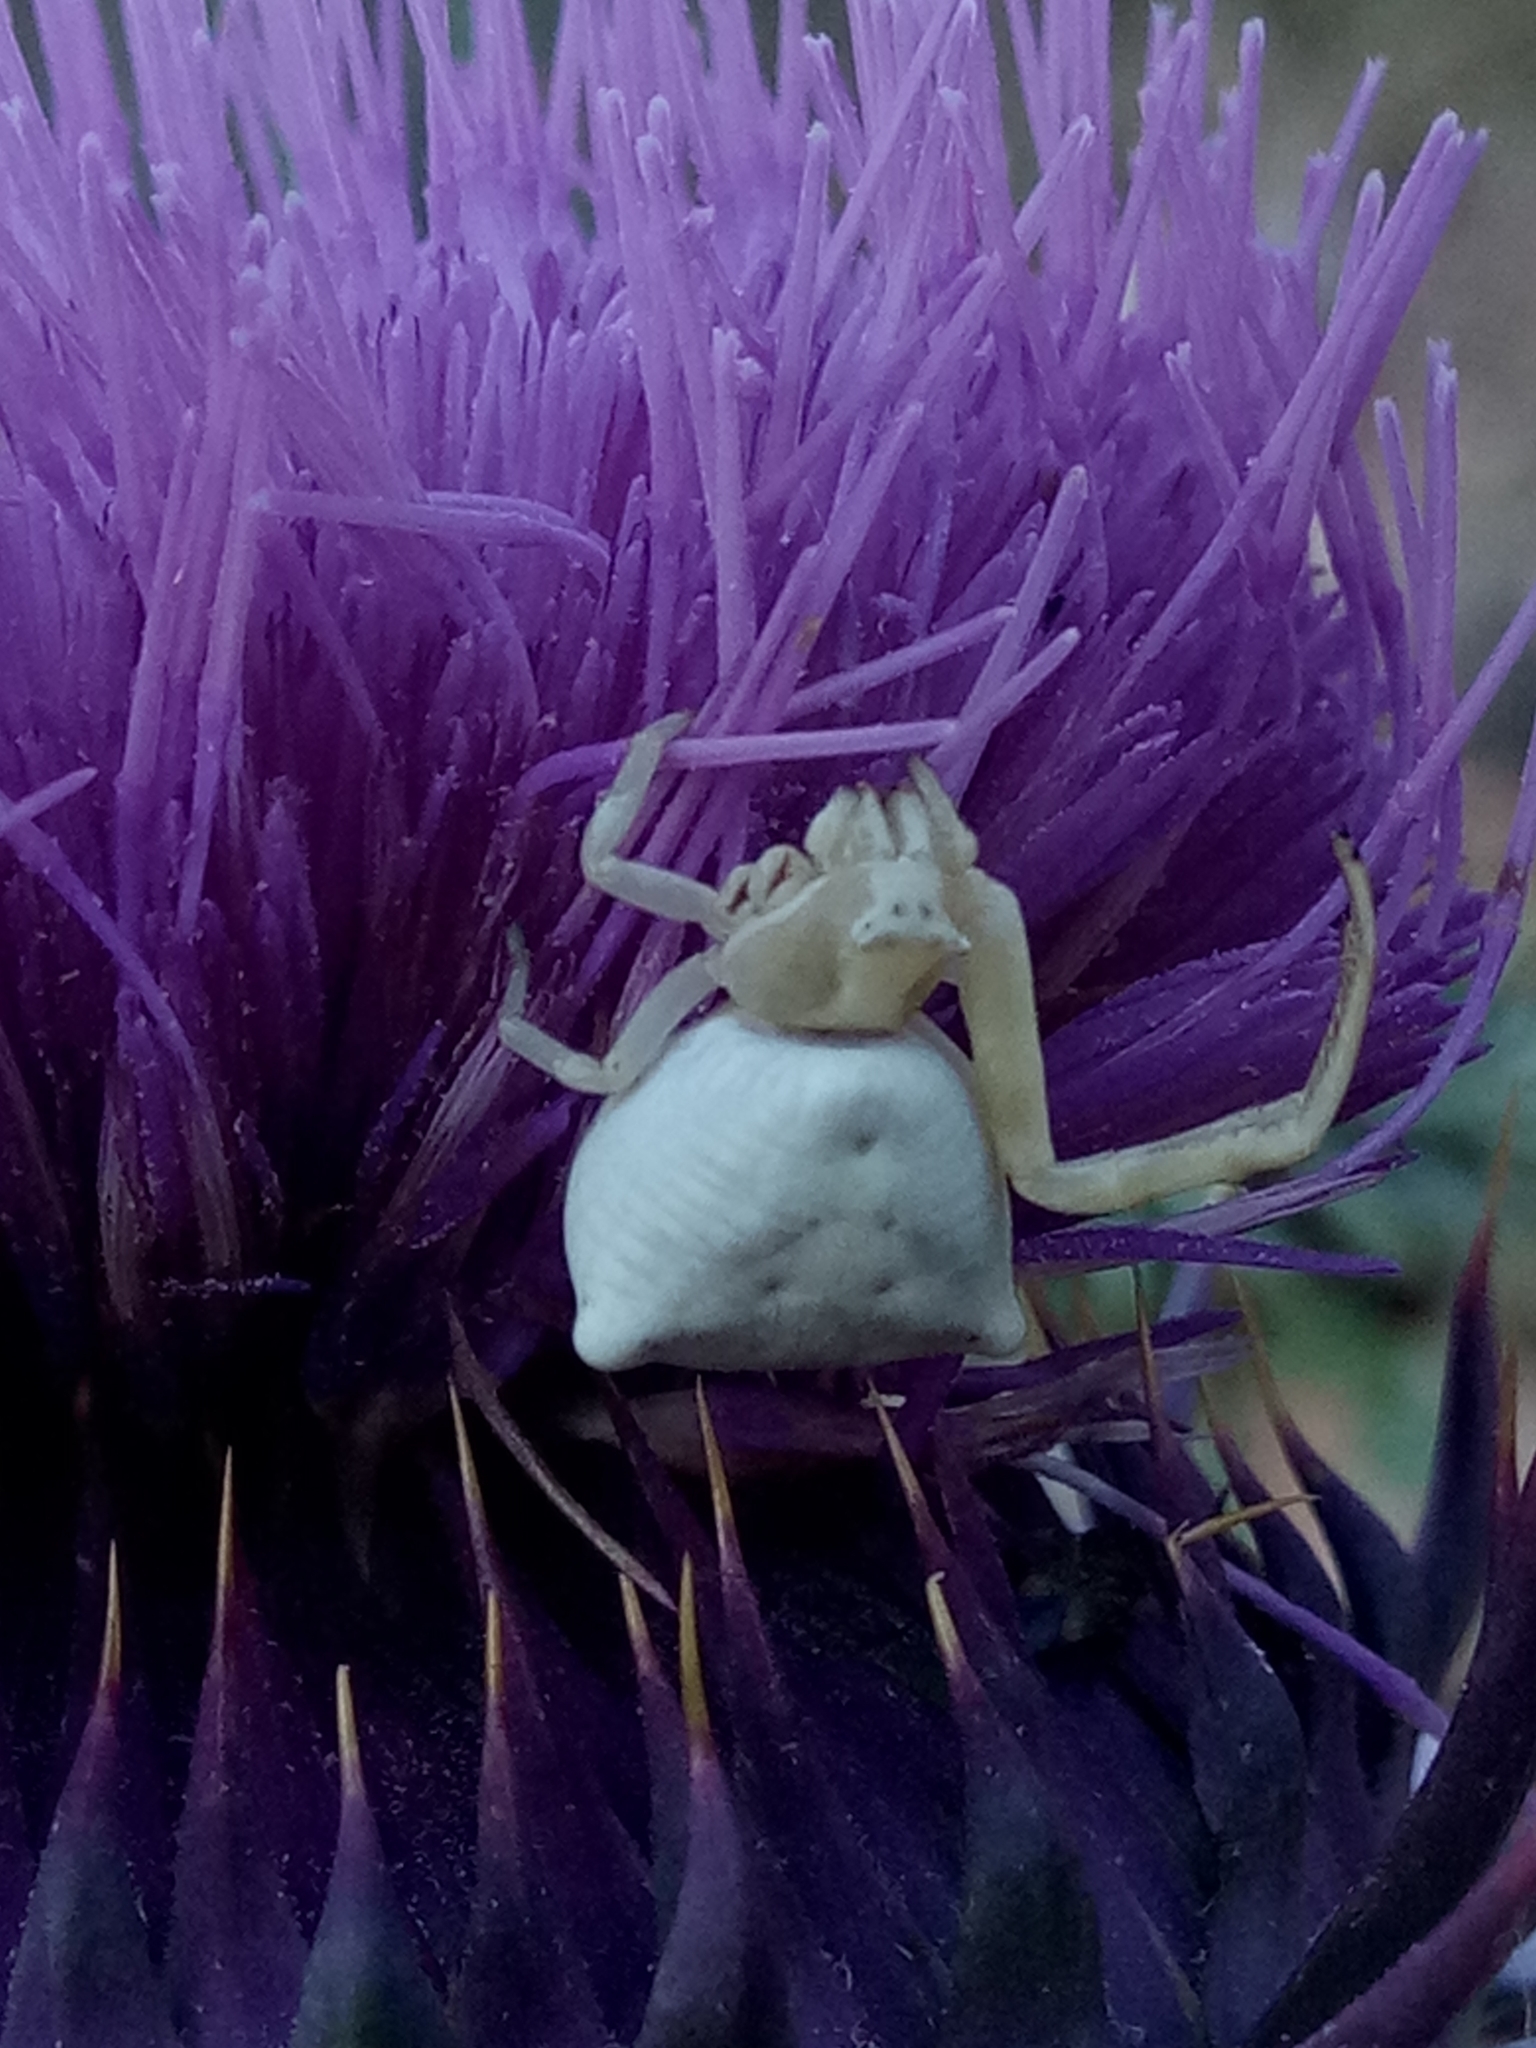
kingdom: Animalia
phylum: Arthropoda
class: Arachnida
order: Araneae
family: Thomisidae
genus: Thomisus
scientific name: Thomisus onustus
